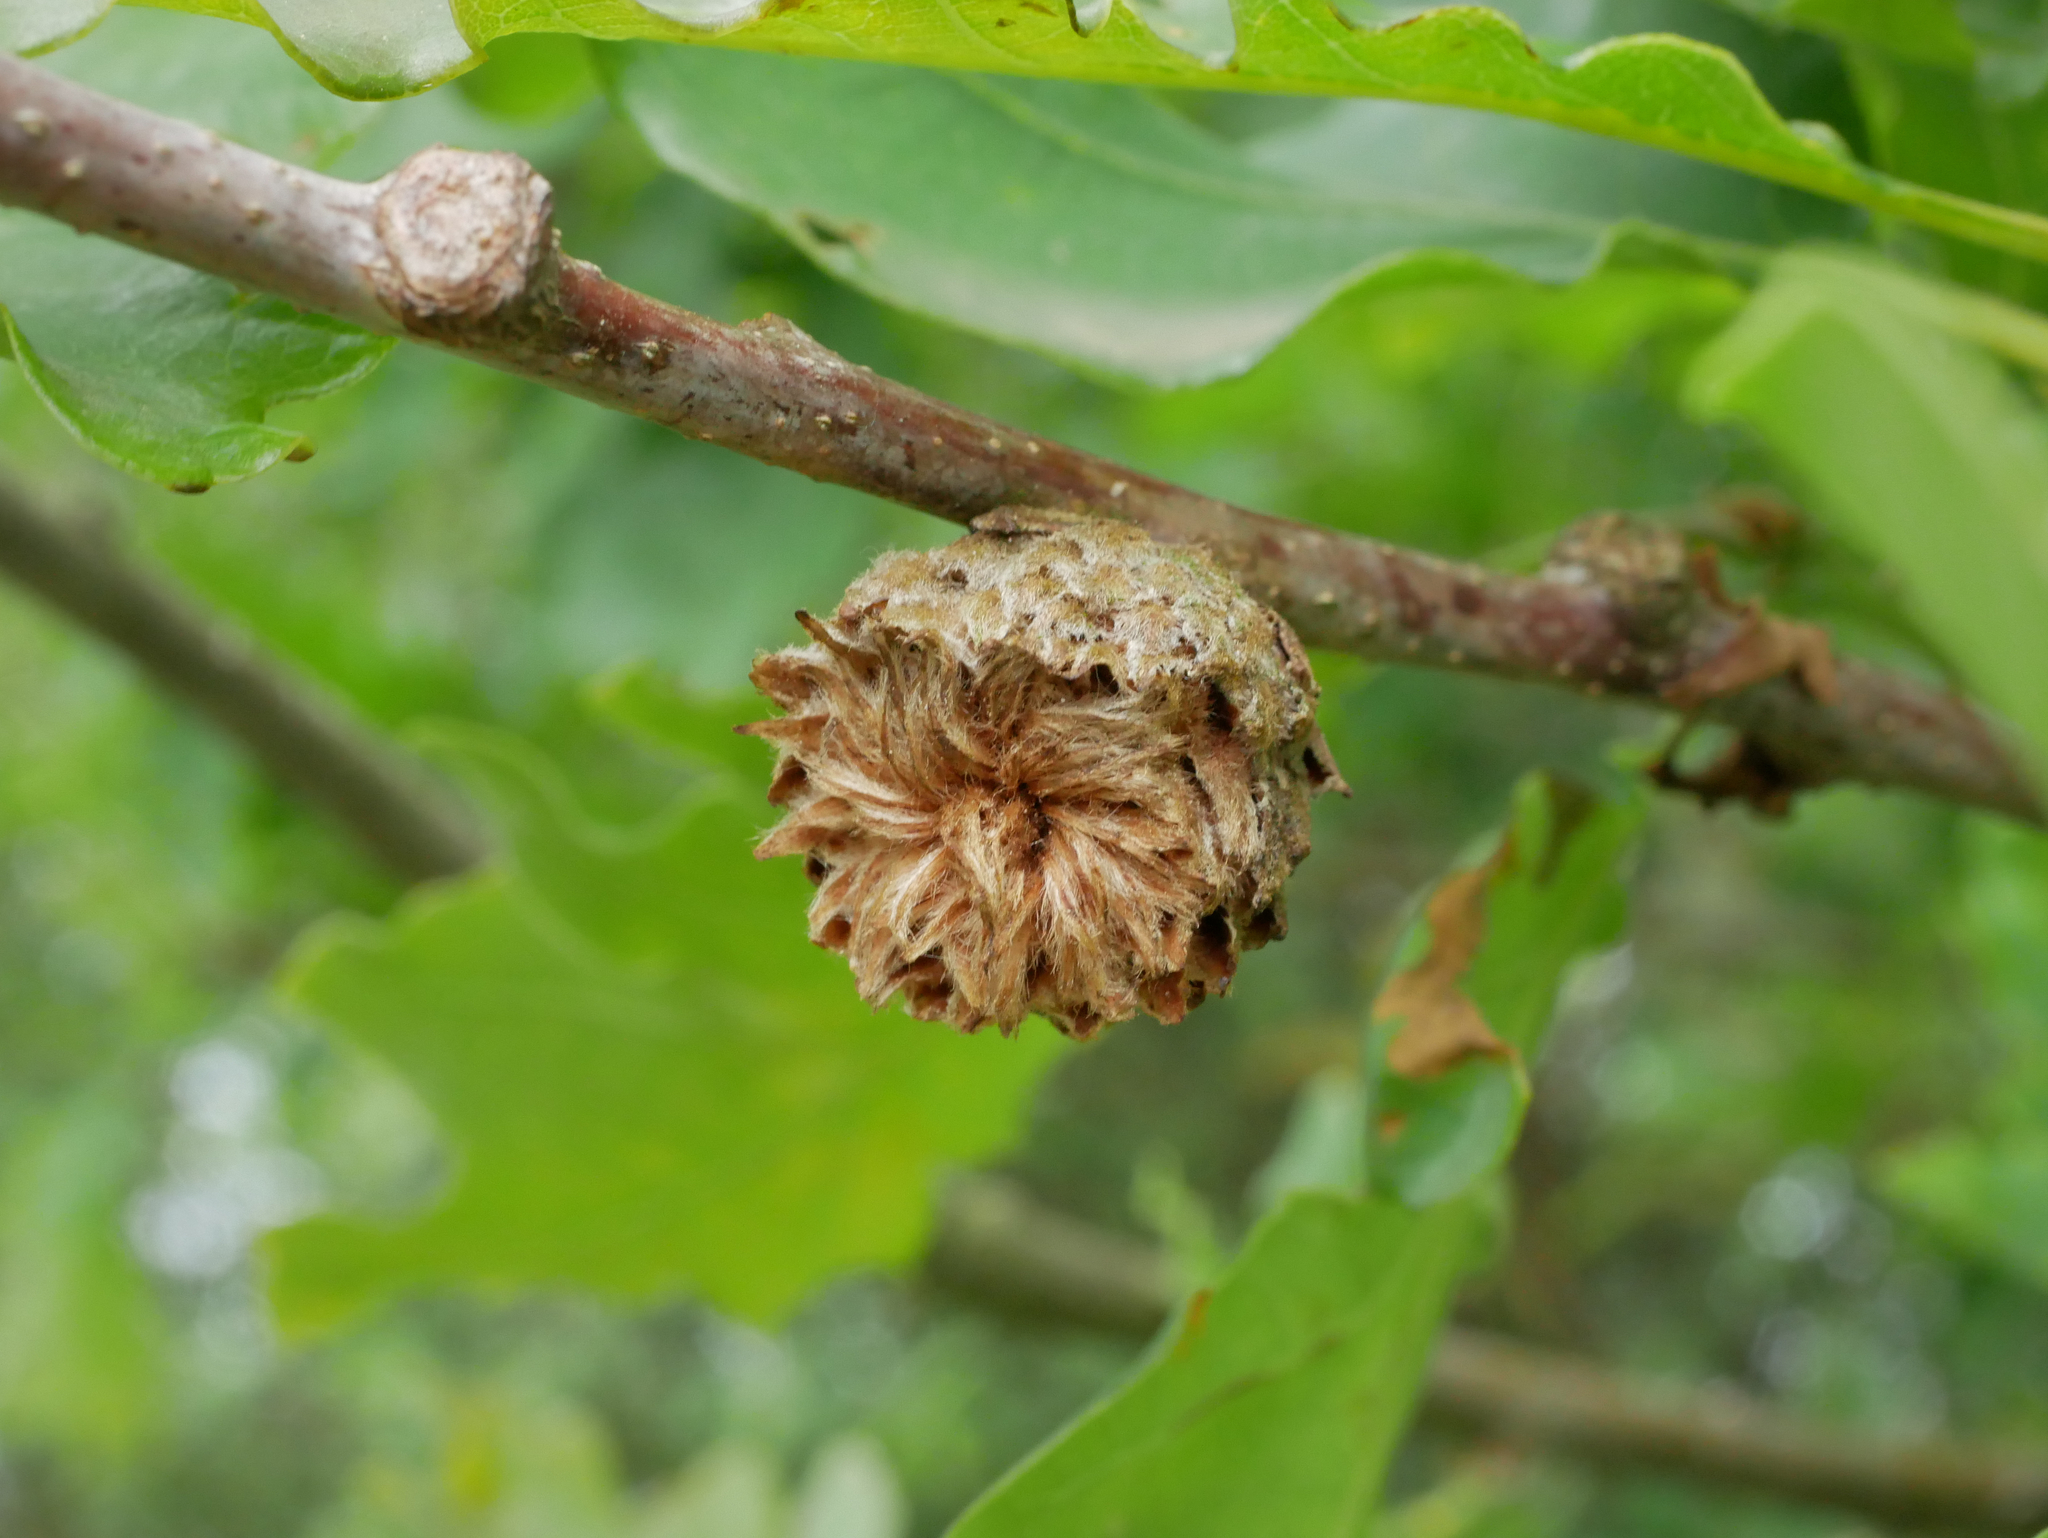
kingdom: Animalia
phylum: Arthropoda
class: Insecta
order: Hymenoptera
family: Cynipidae
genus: Andricus
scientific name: Andricus foecundatrix
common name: Artichoke gall
